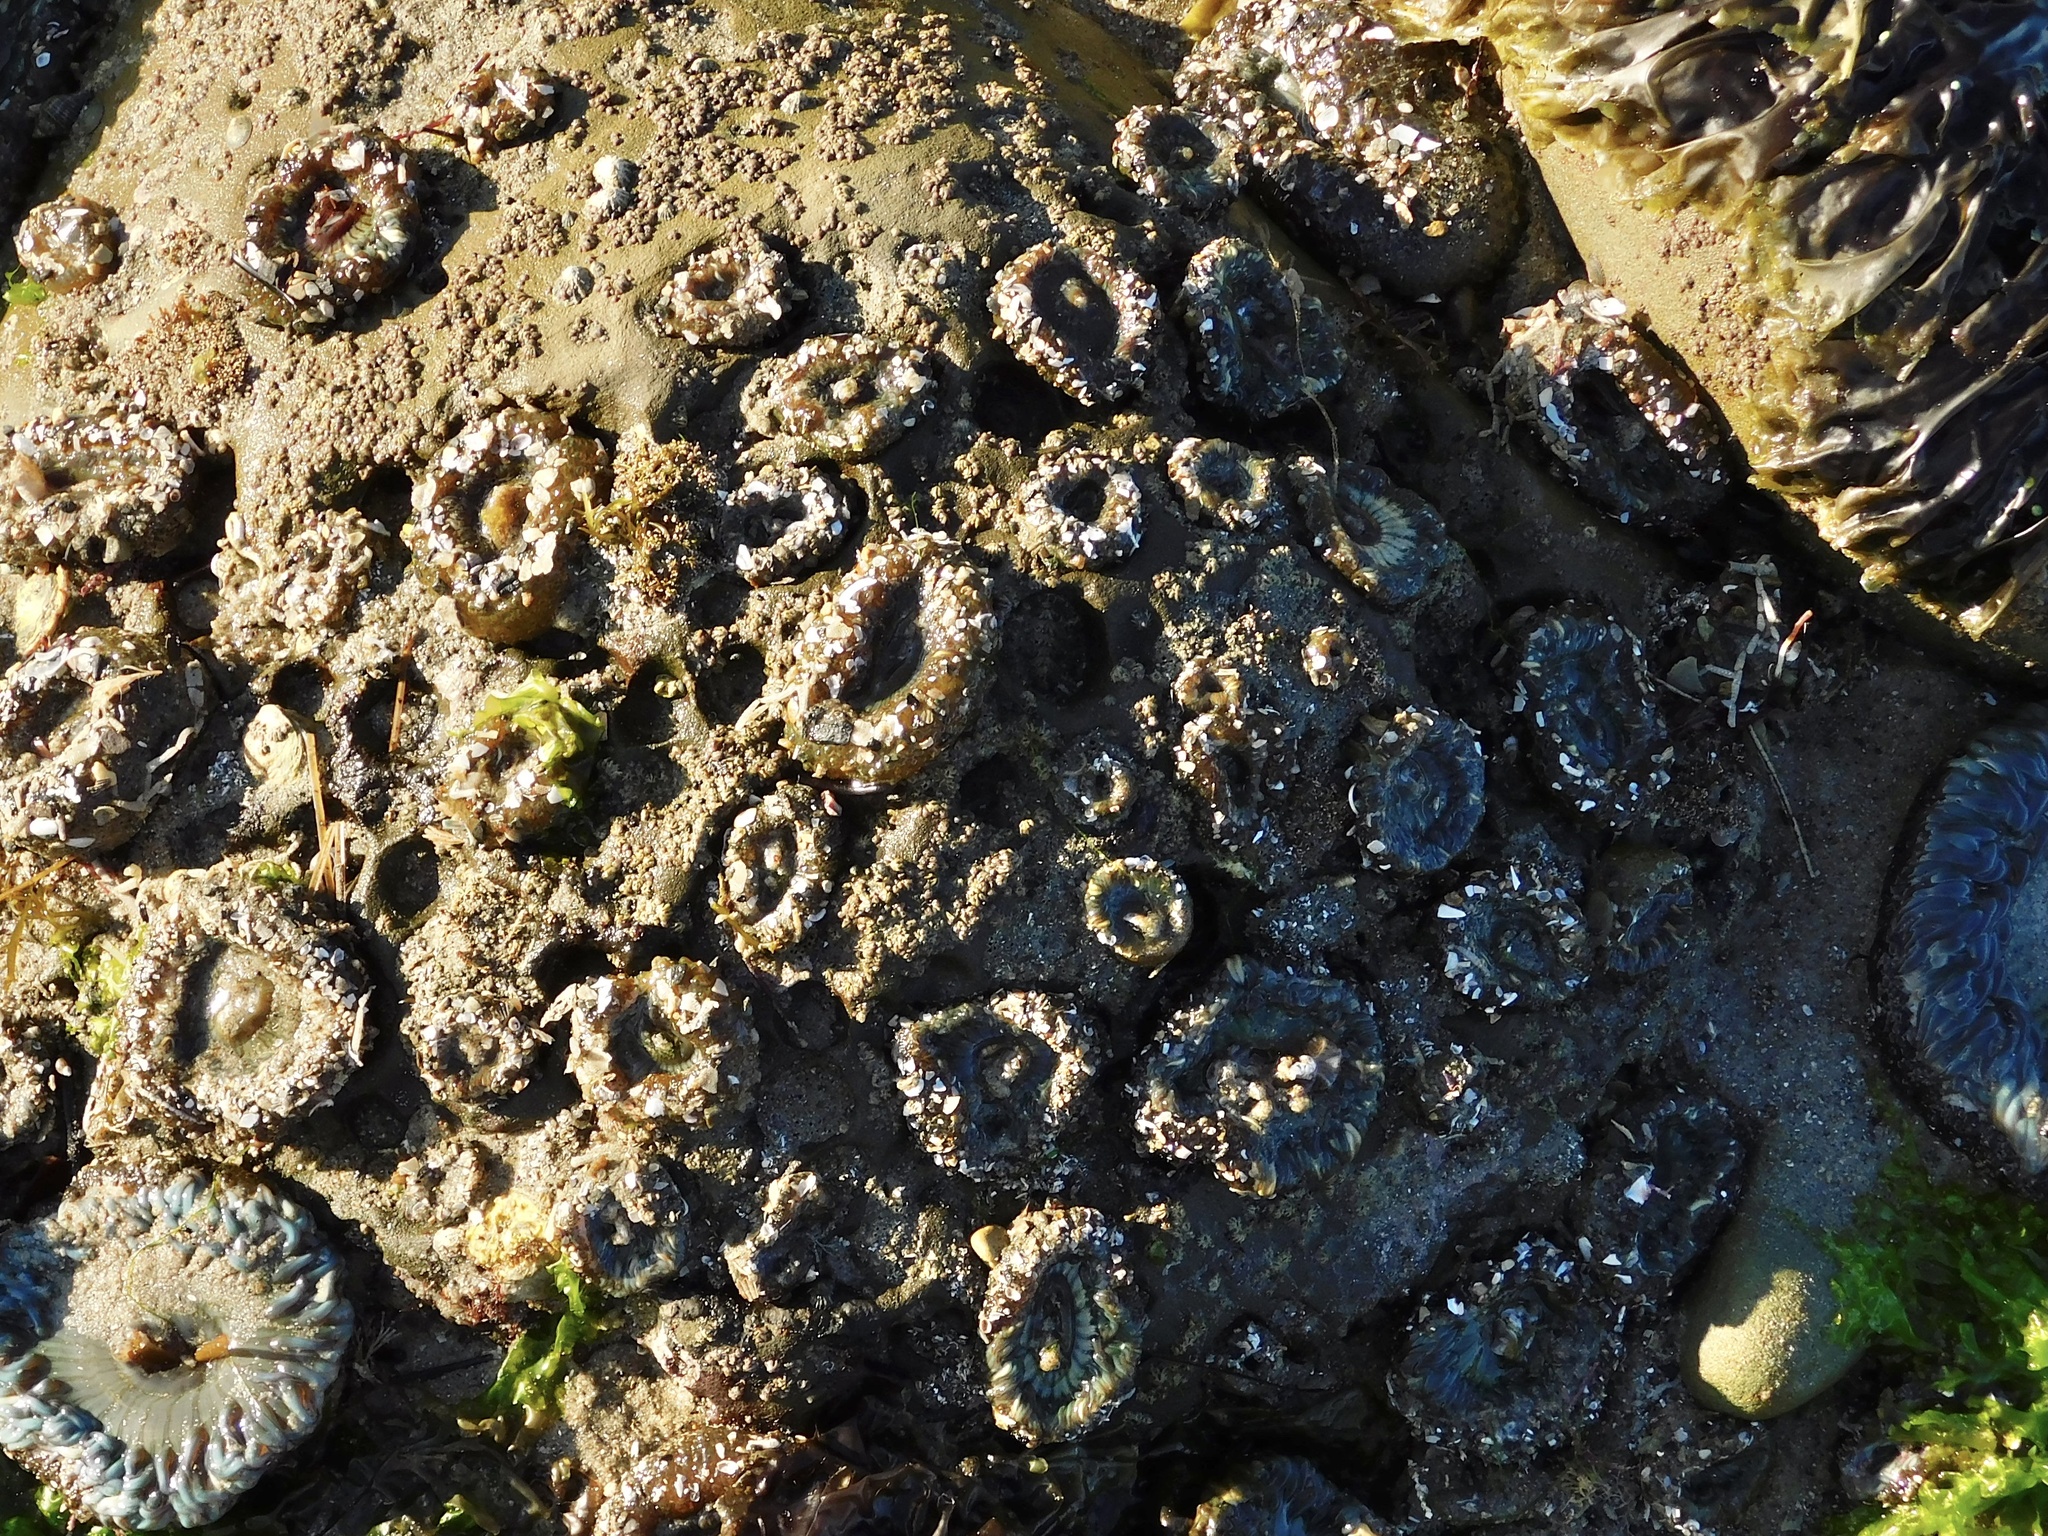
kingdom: Animalia
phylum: Cnidaria
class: Anthozoa
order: Actiniaria
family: Actiniidae
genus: Anthopleura
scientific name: Anthopleura elegantissima
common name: Clonal anemone
